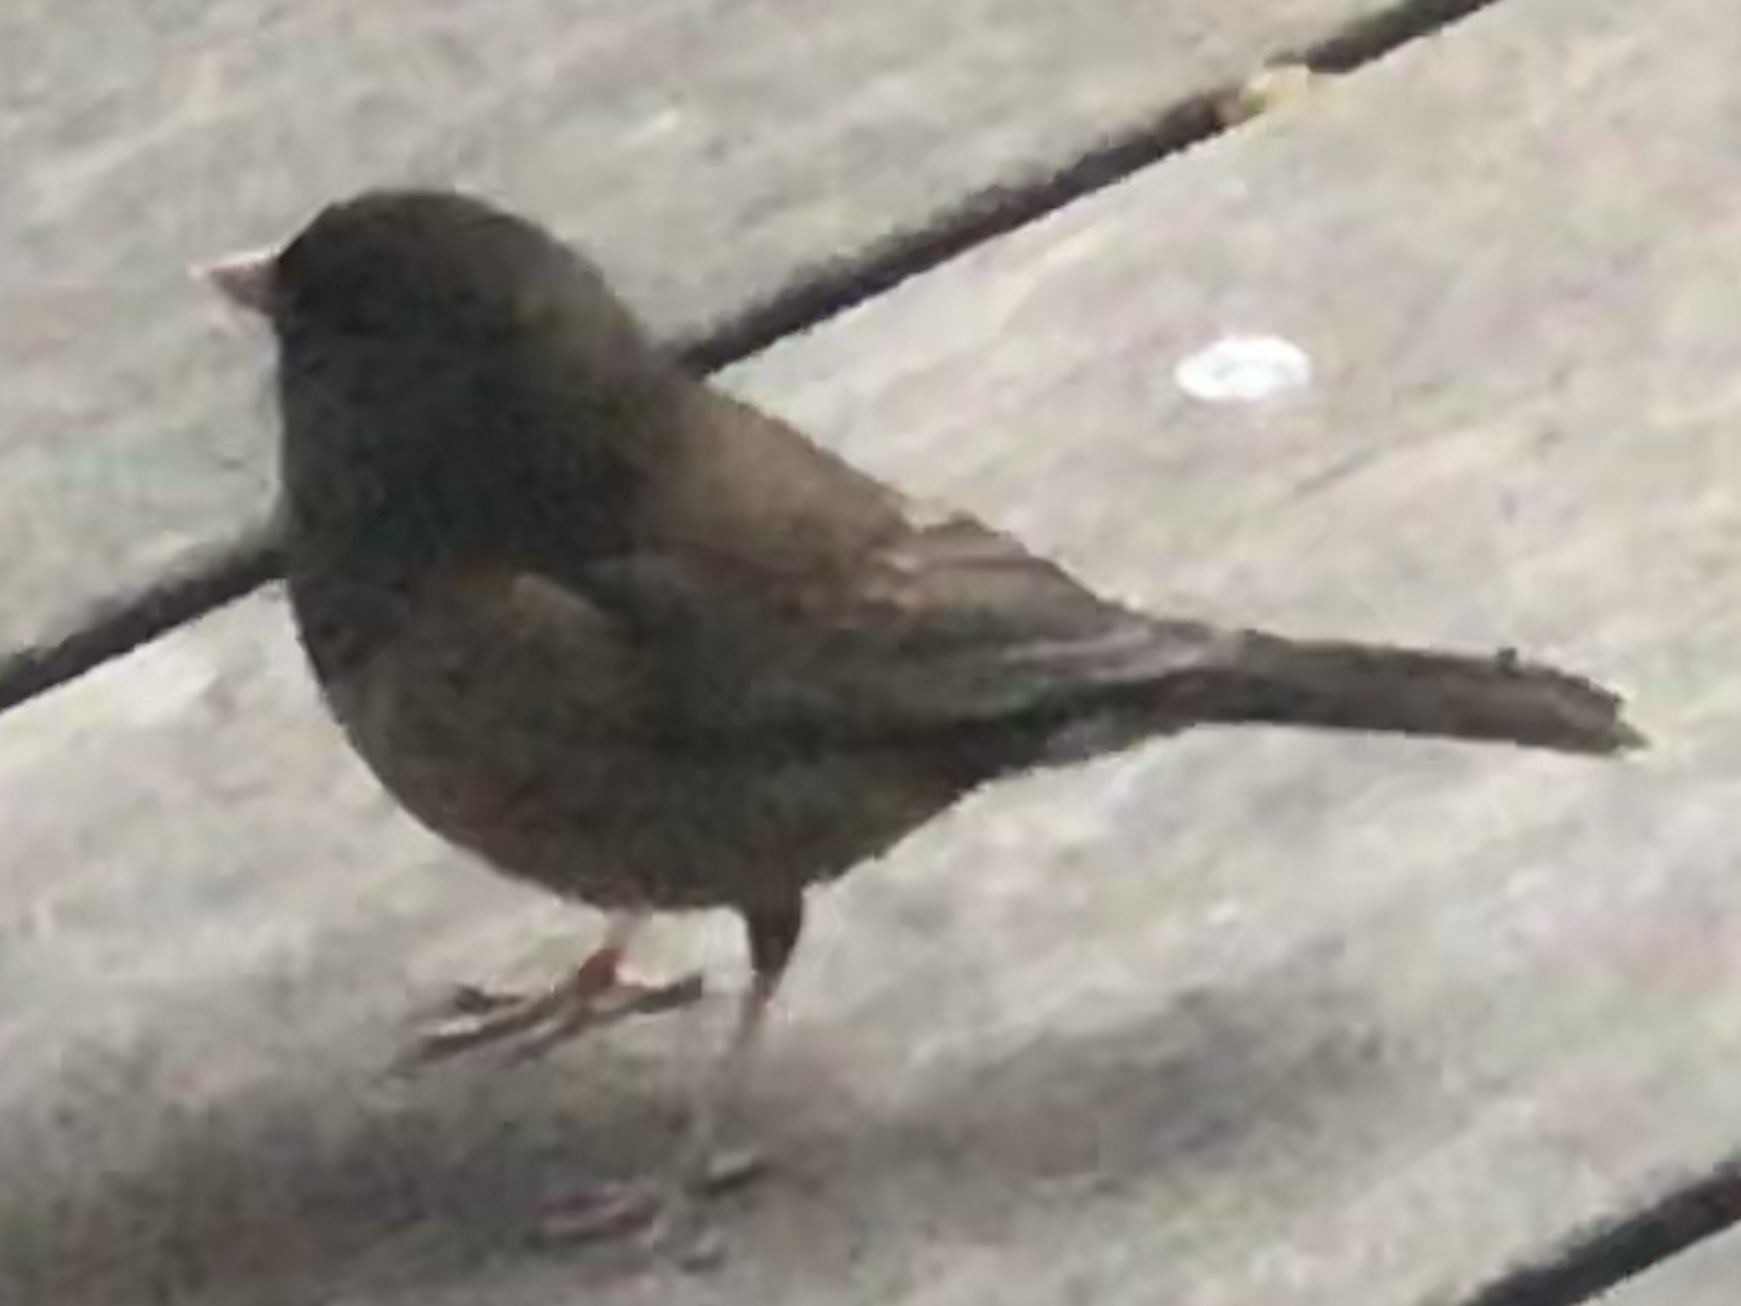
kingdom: Animalia
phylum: Chordata
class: Aves
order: Passeriformes
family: Passerellidae
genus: Junco
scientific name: Junco hyemalis
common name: Dark-eyed junco
